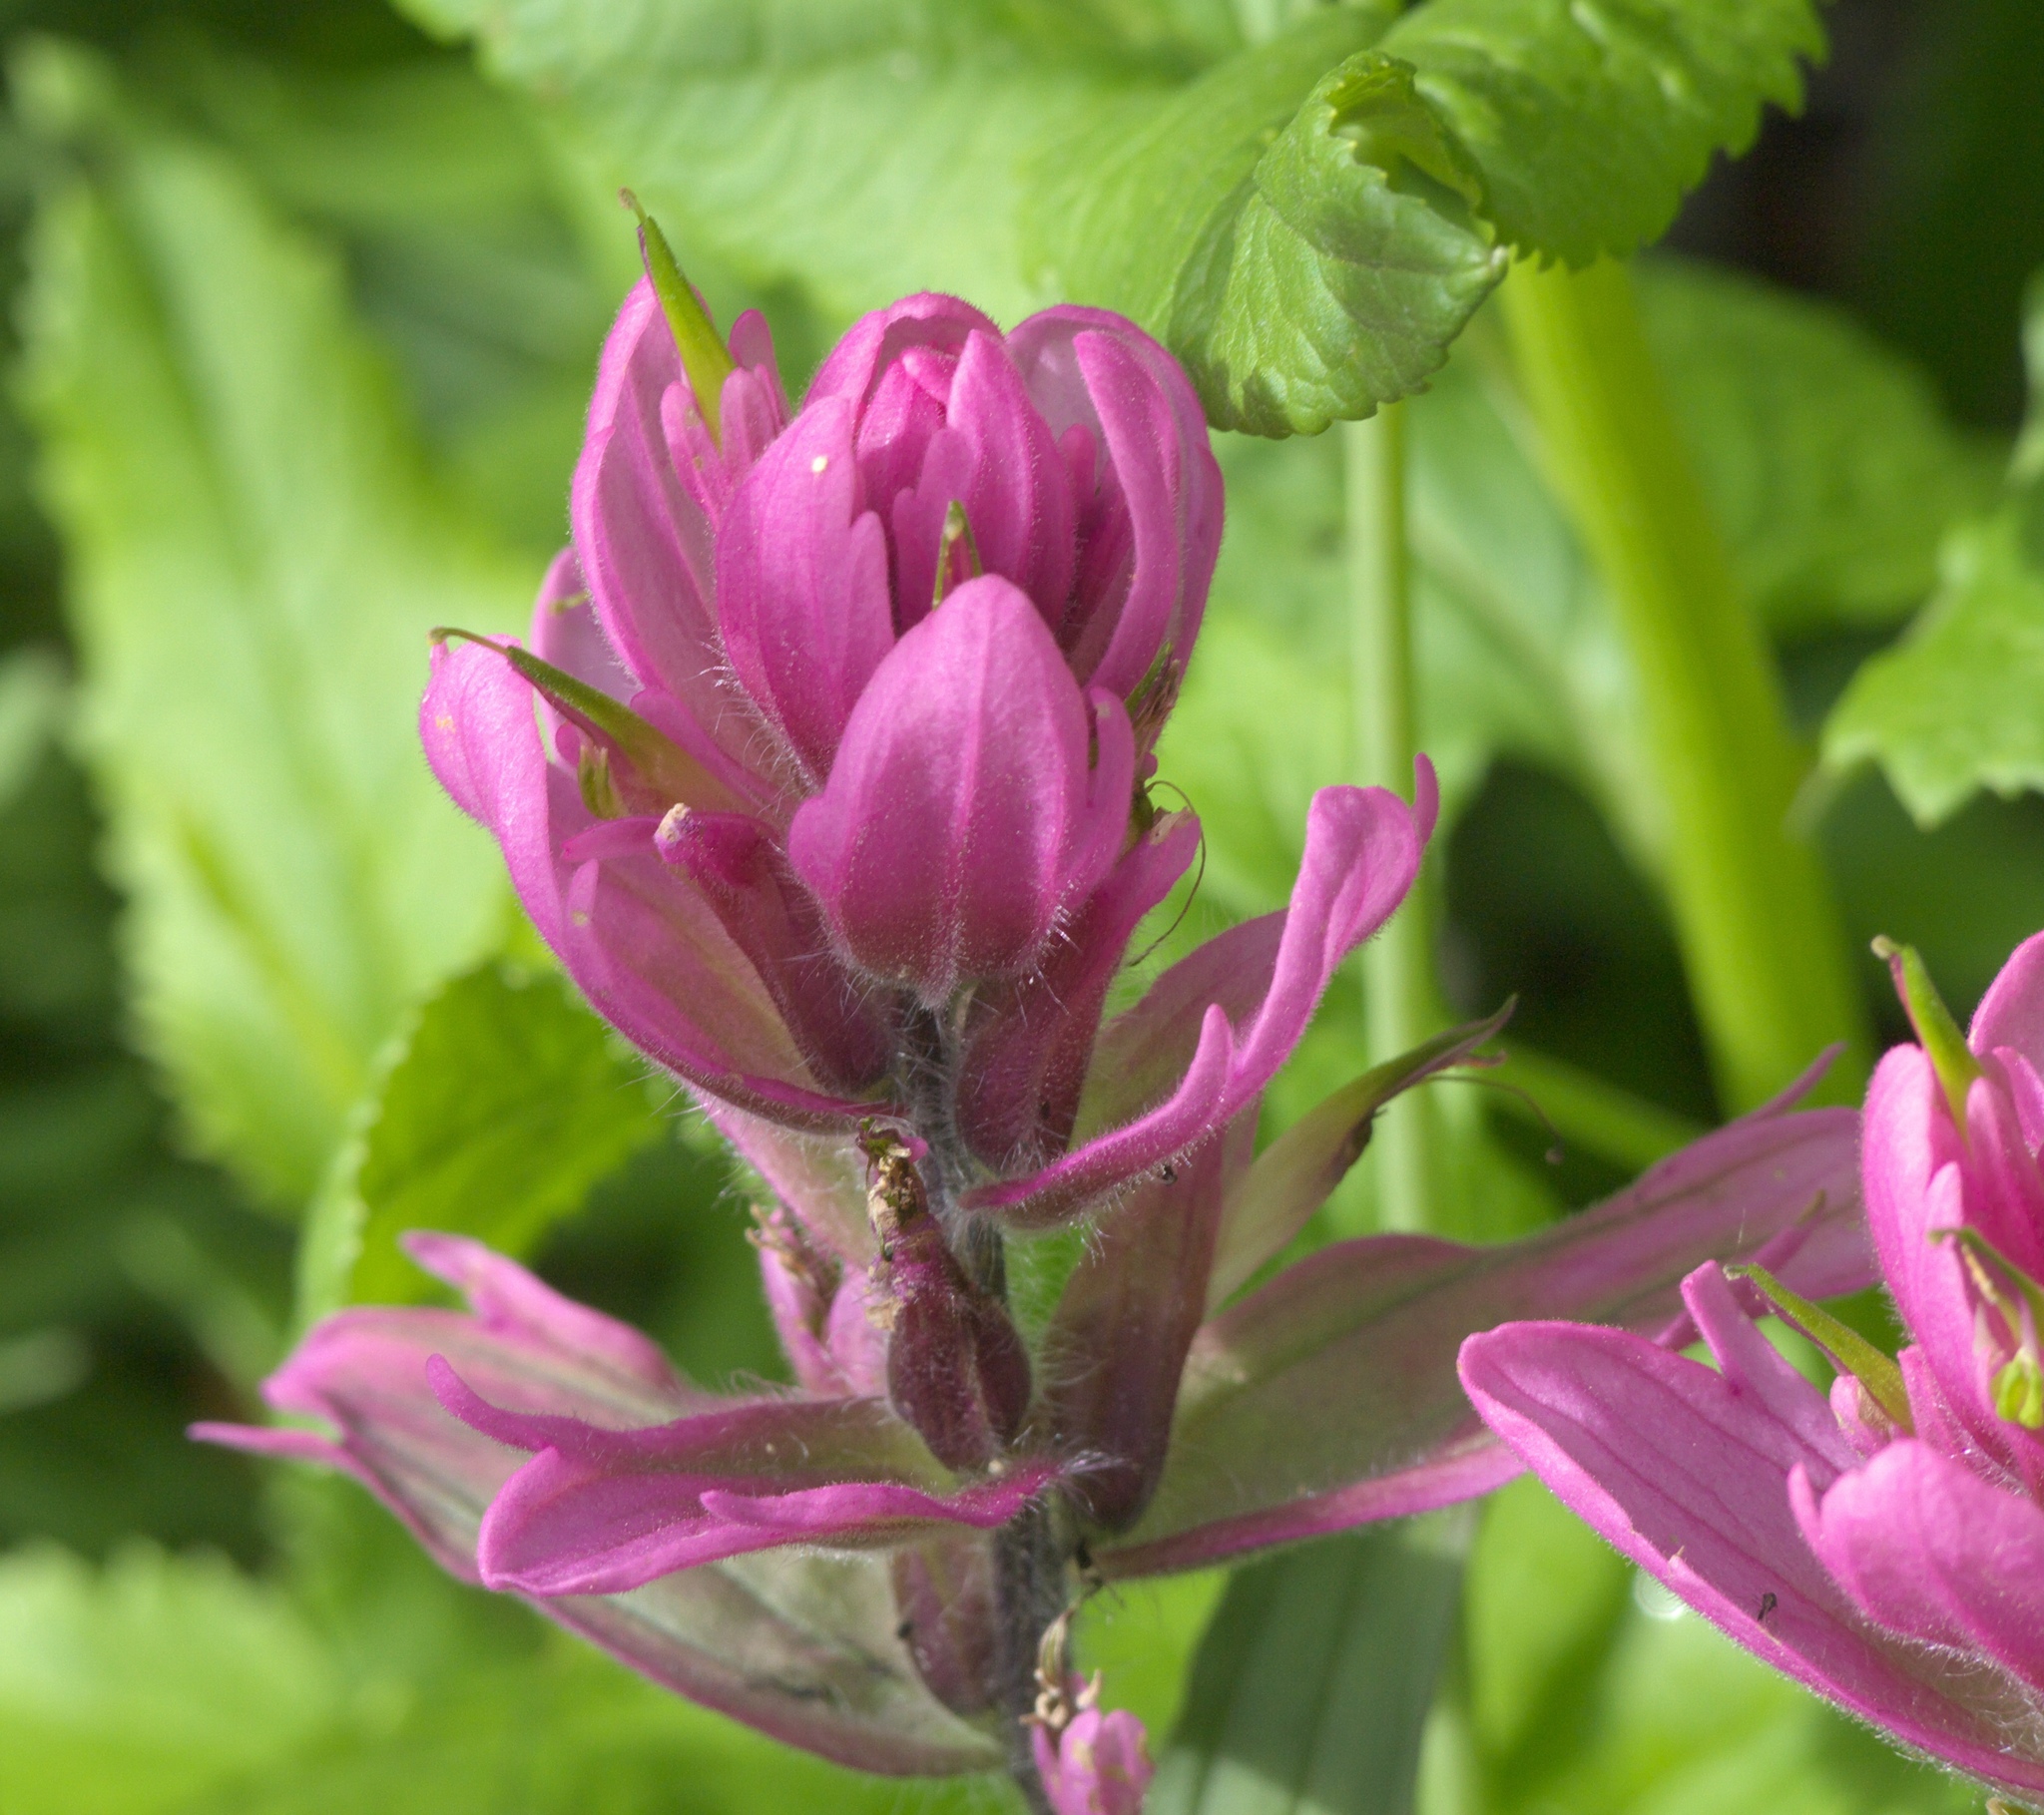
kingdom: Plantae
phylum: Tracheophyta
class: Magnoliopsida
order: Lamiales
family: Orobanchaceae
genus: Castilleja
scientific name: Castilleja rhexifolia
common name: Rocky mountain paintbrush
